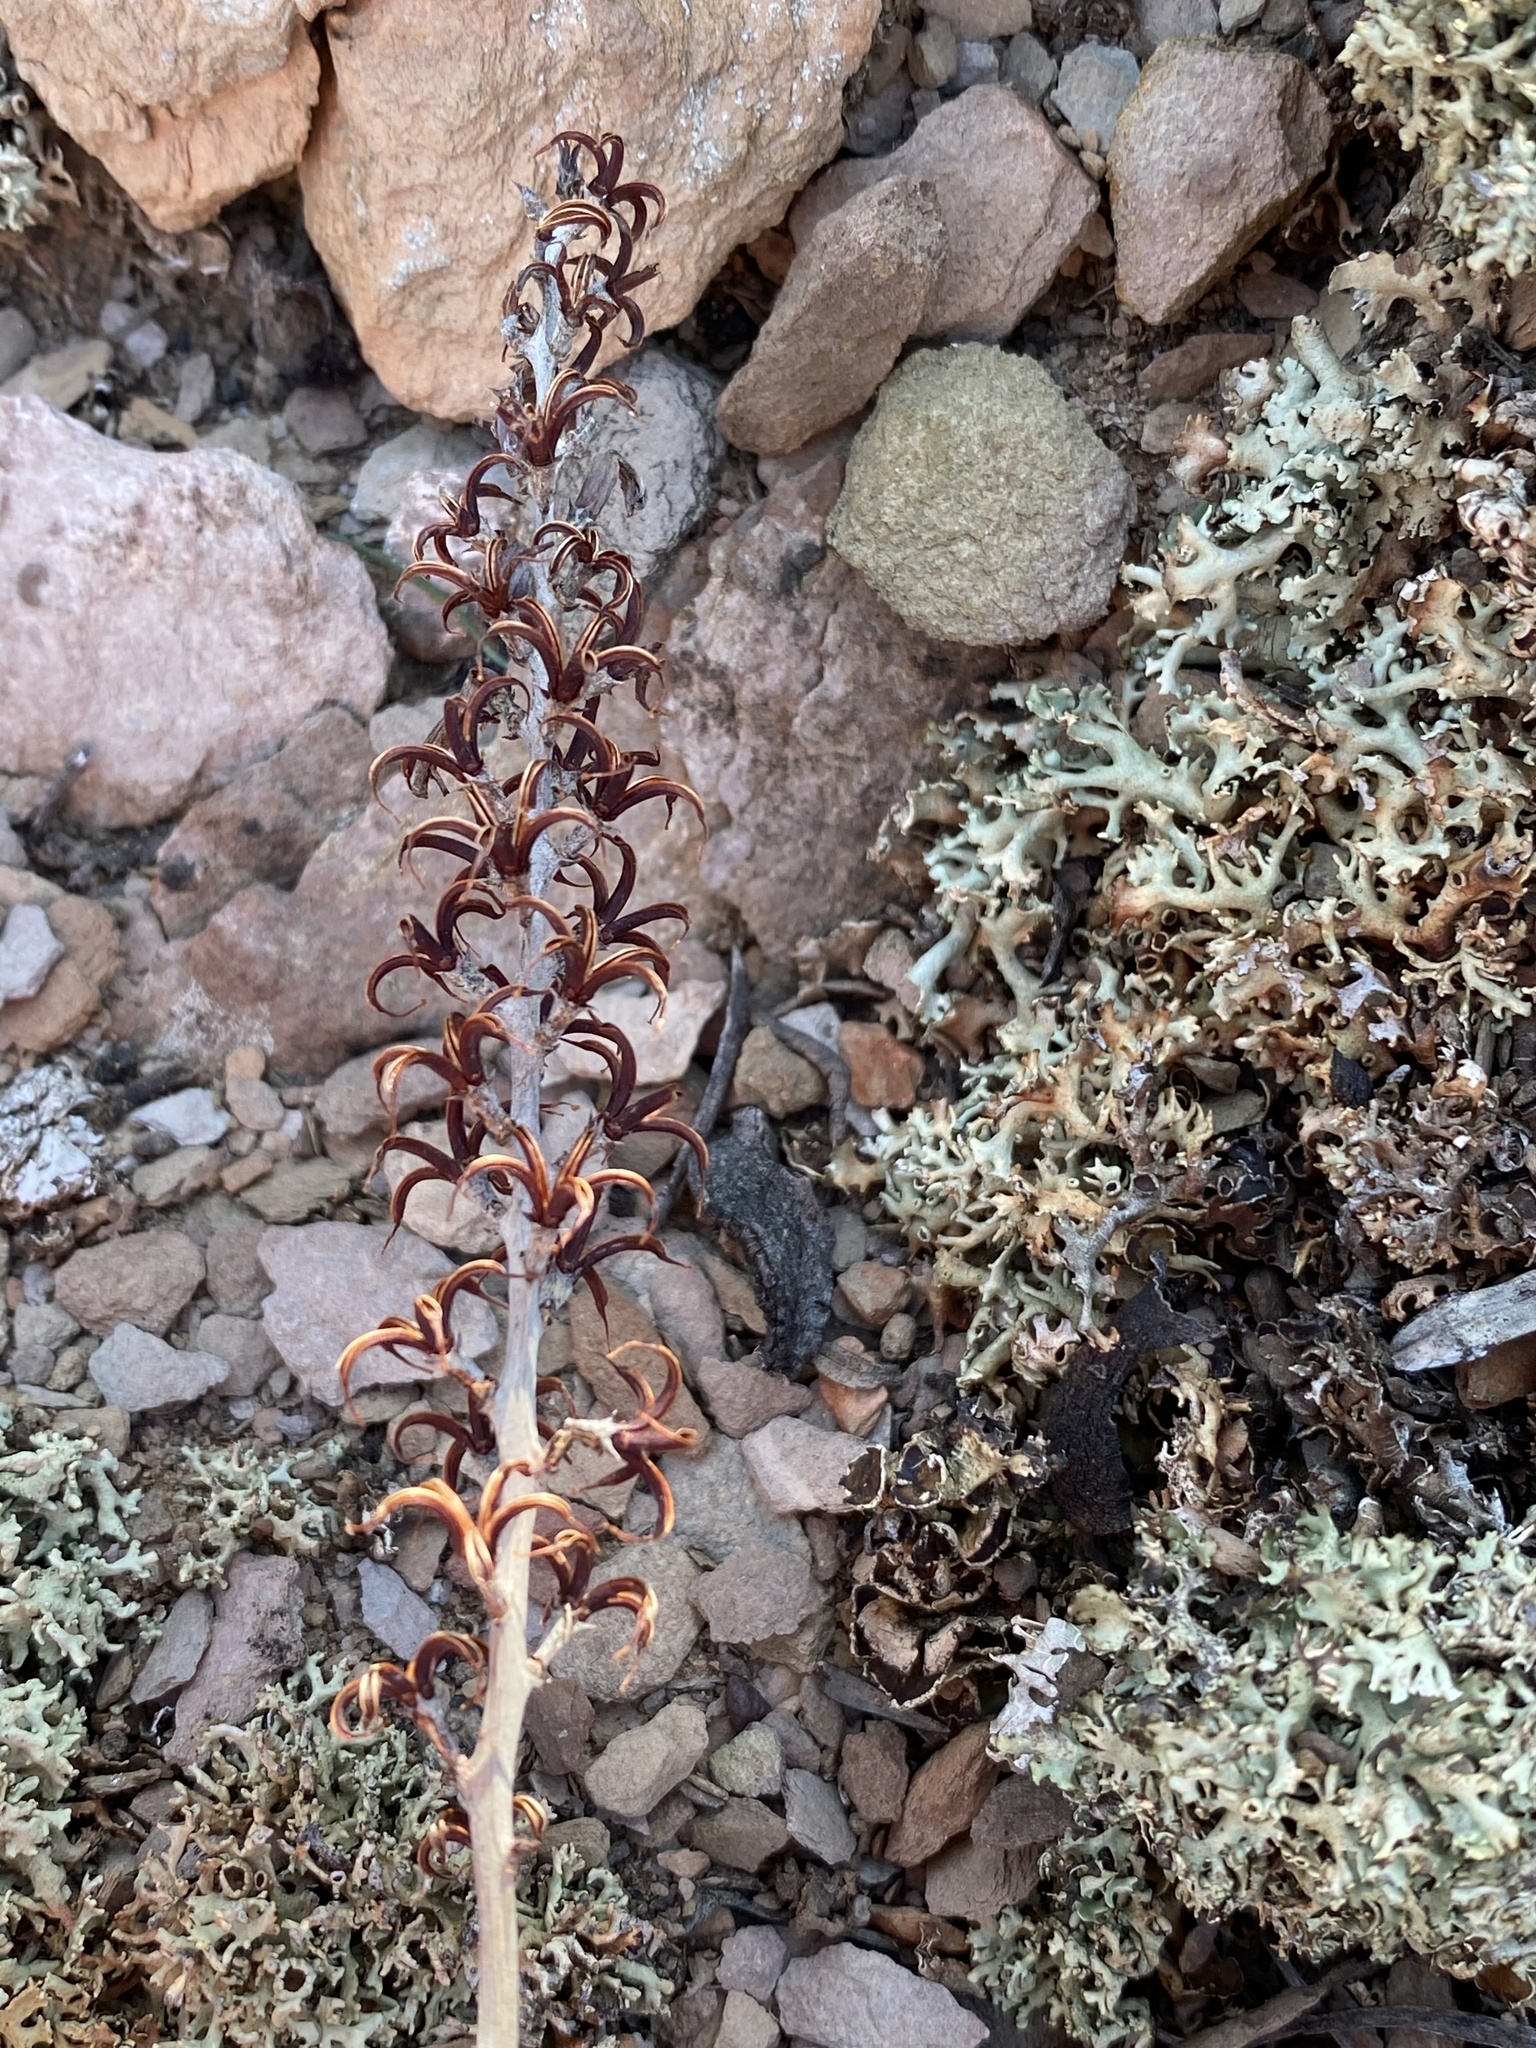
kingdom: Plantae
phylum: Tracheophyta
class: Magnoliopsida
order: Saxifragales
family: Crassulaceae
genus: Adromischus
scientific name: Adromischus triflorus
